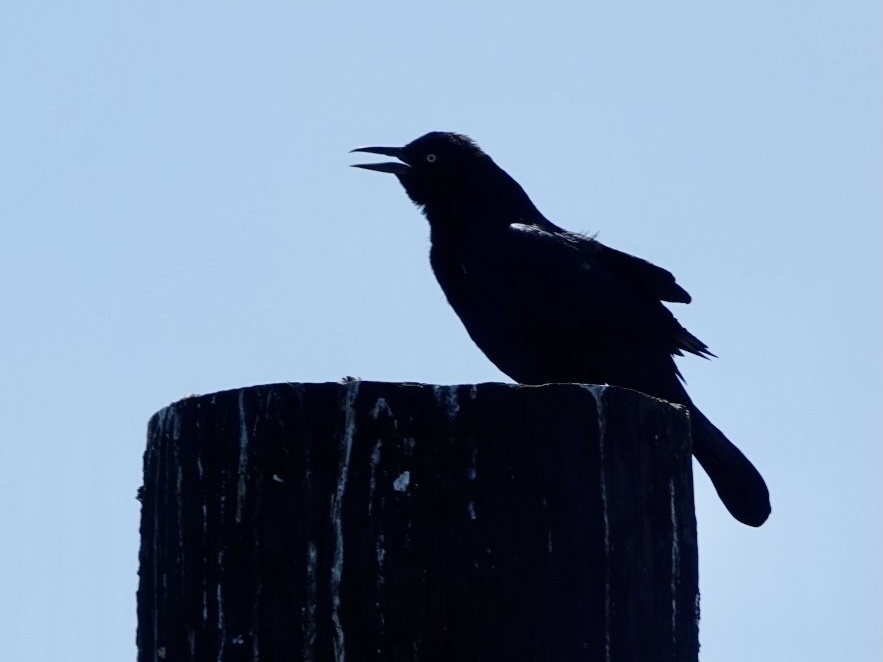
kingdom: Animalia
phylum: Chordata
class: Aves
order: Passeriformes
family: Icteridae
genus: Quiscalus
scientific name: Quiscalus major
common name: Boat-tailed grackle
